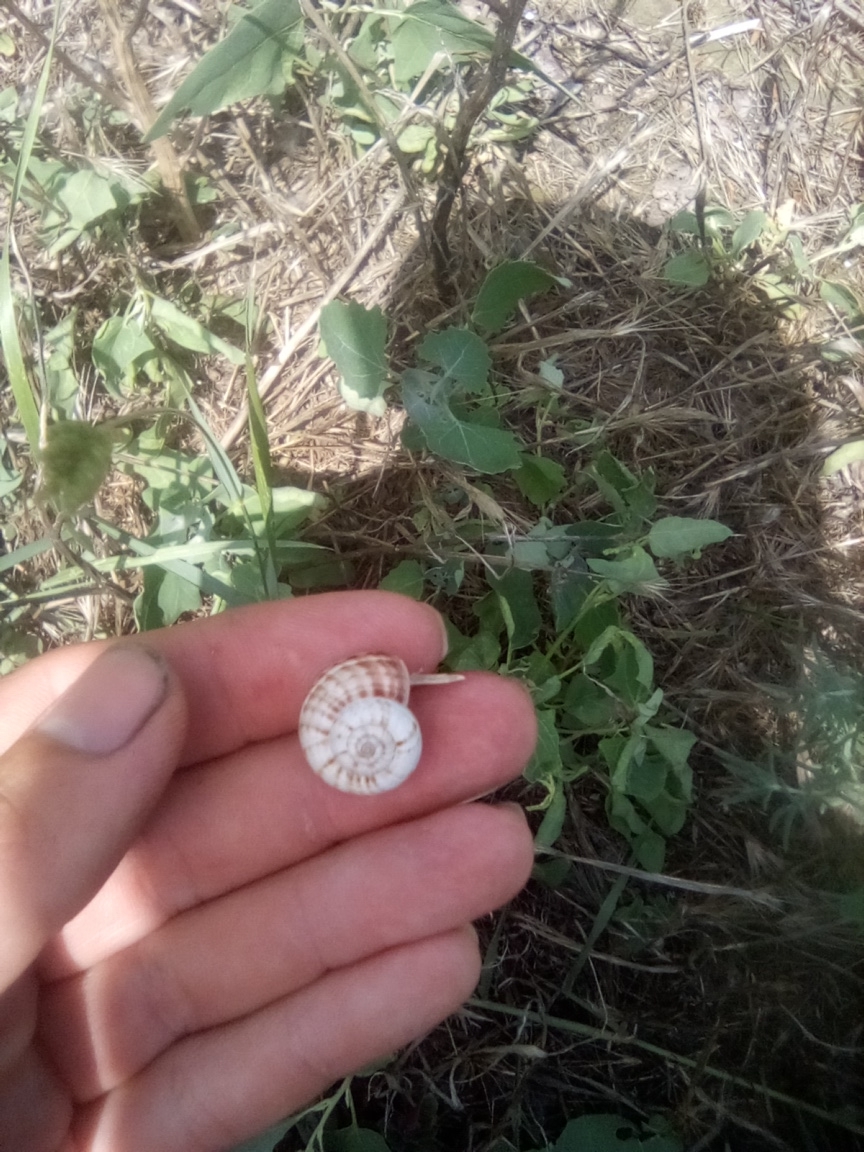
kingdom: Animalia
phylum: Mollusca
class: Gastropoda
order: Stylommatophora
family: Geomitridae
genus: Xeropicta
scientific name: Xeropicta derbentina
